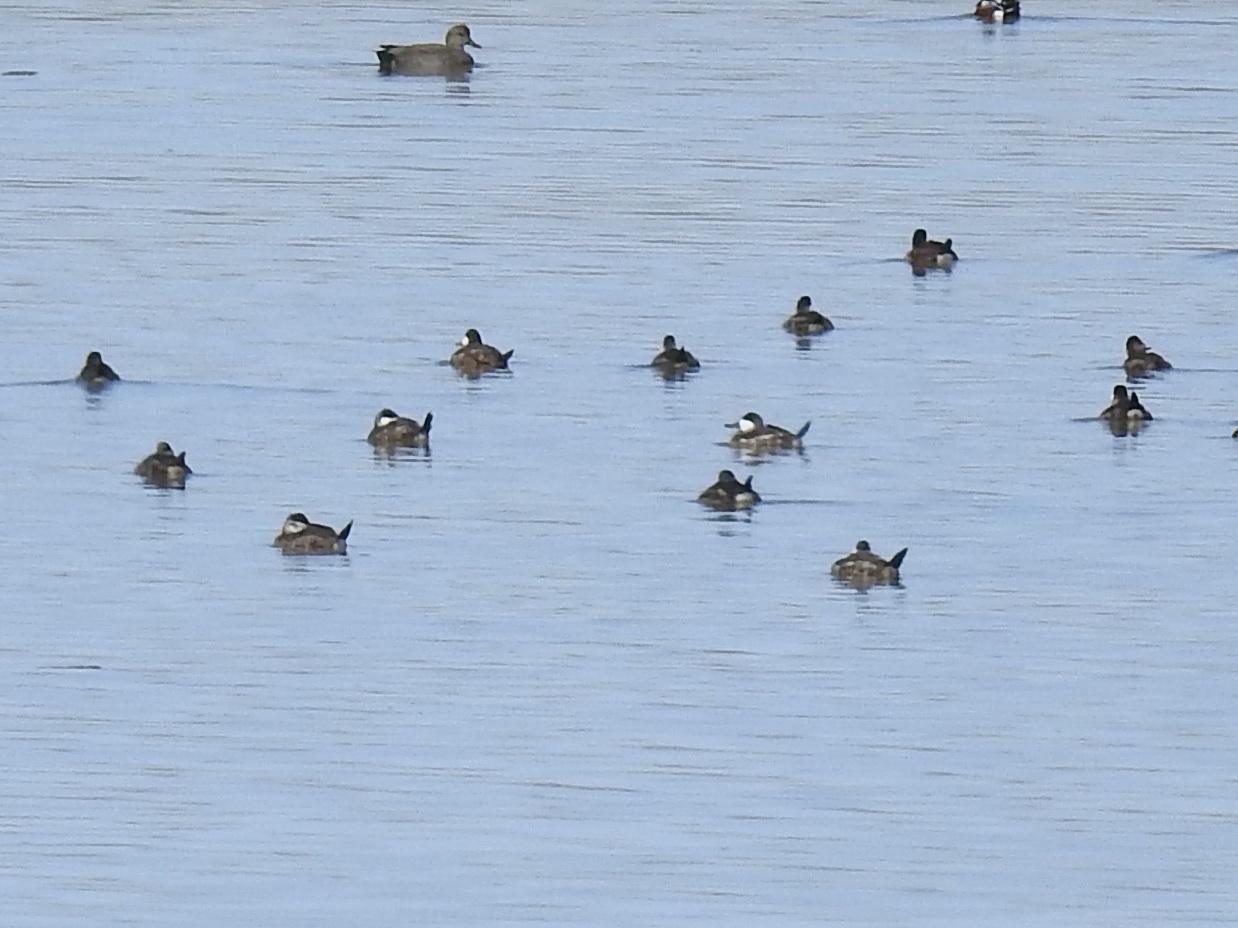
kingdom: Animalia
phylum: Chordata
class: Aves
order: Anseriformes
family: Anatidae
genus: Oxyura
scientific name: Oxyura jamaicensis
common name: Ruddy duck
